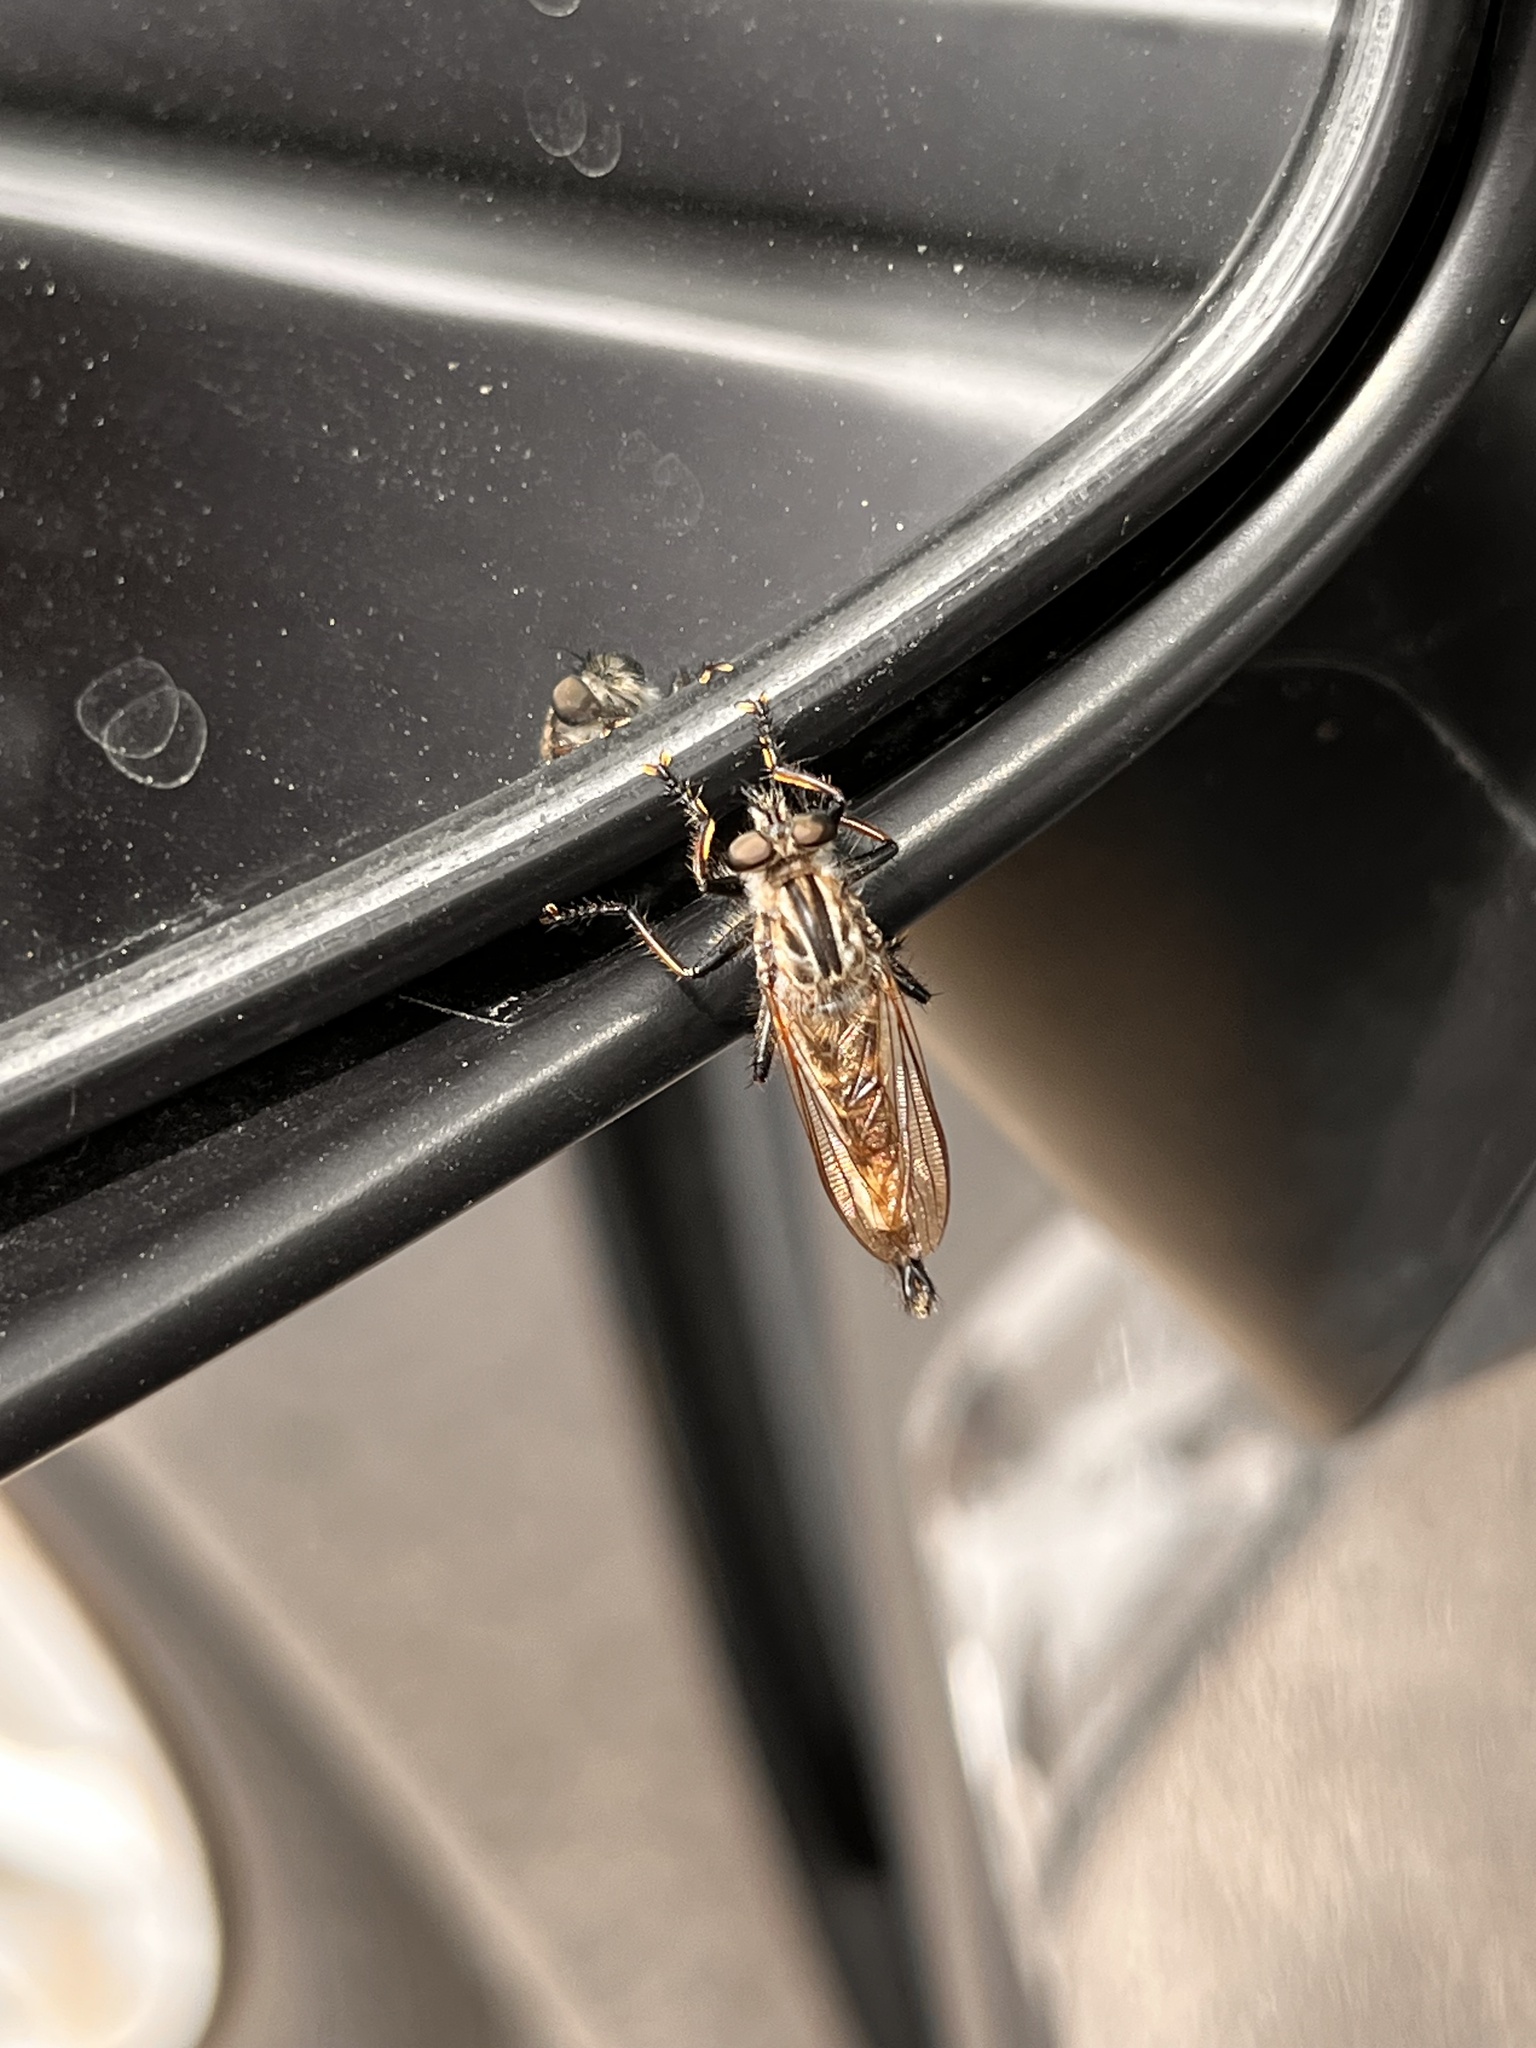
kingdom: Animalia
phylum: Arthropoda
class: Insecta
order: Diptera
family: Asilidae
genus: Efferia
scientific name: Efferia aestuans
